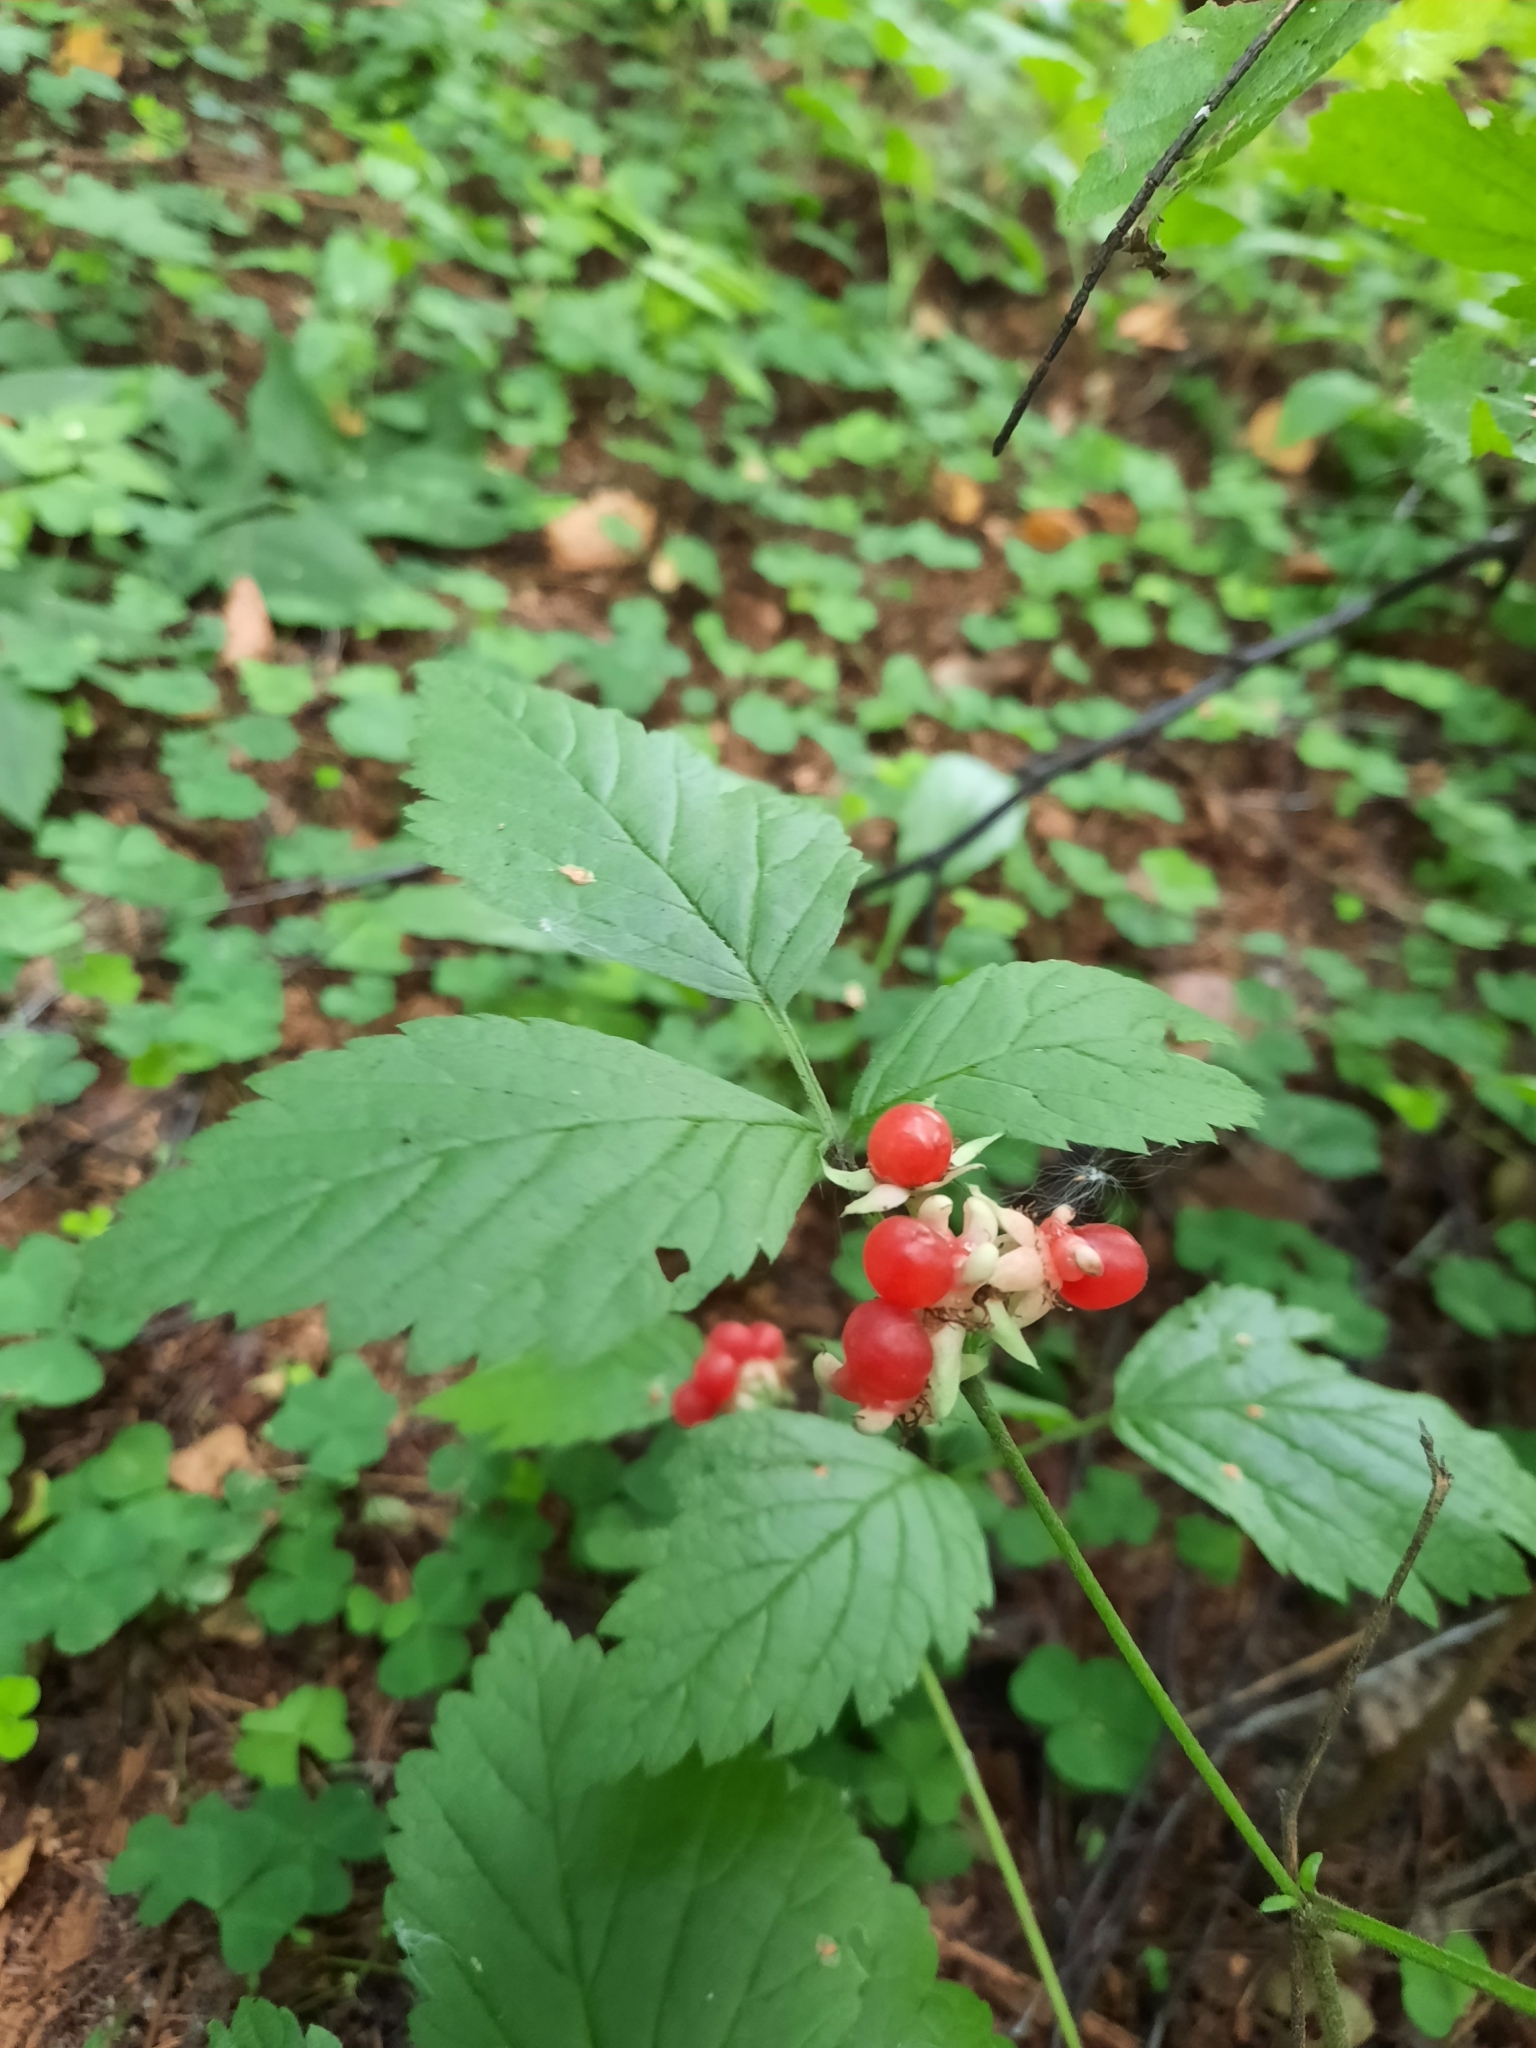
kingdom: Plantae
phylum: Tracheophyta
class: Magnoliopsida
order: Rosales
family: Rosaceae
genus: Rubus
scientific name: Rubus saxatilis
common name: Stone bramble
